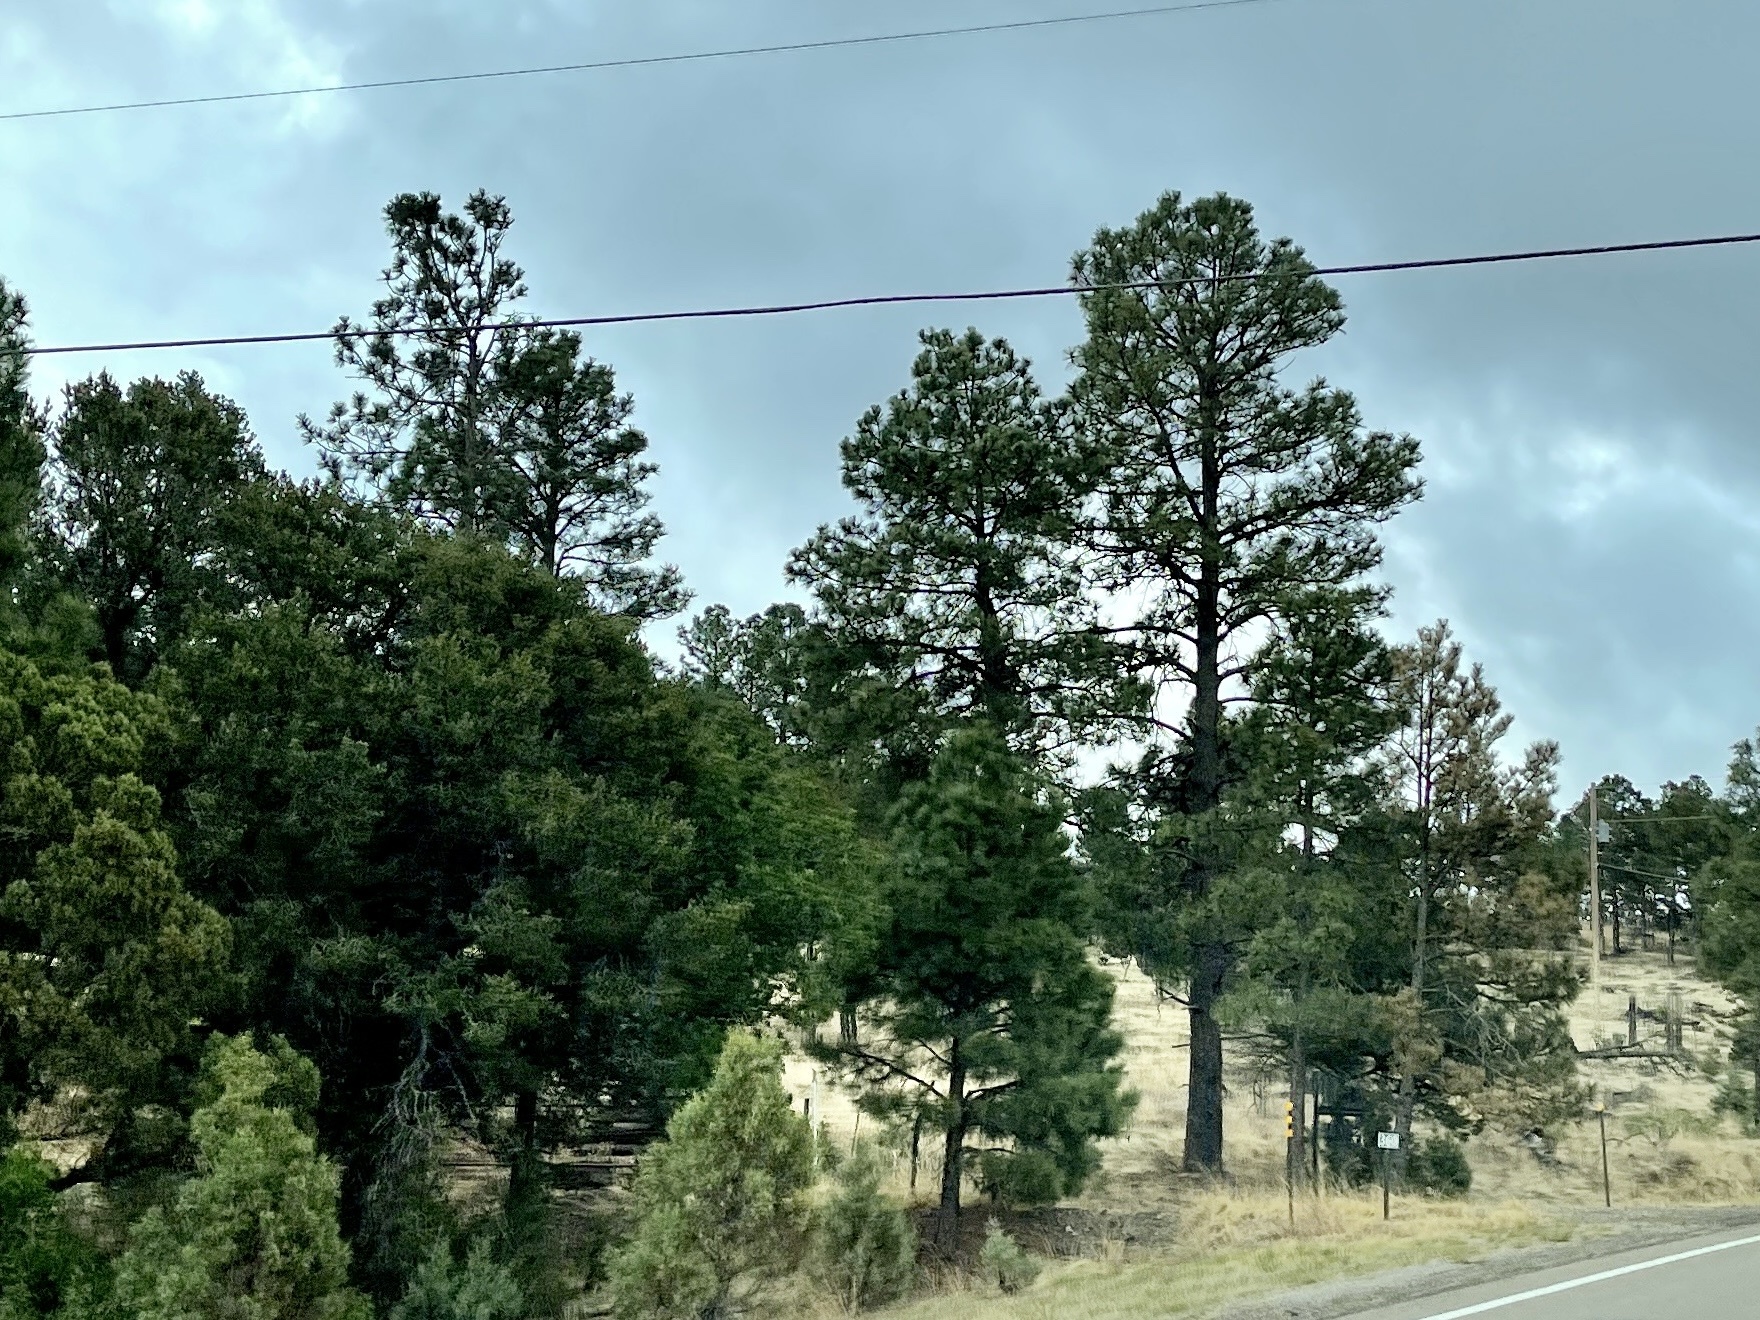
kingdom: Plantae
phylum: Tracheophyta
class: Pinopsida
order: Pinales
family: Pinaceae
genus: Pinus
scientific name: Pinus ponderosa
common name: Western yellow-pine
